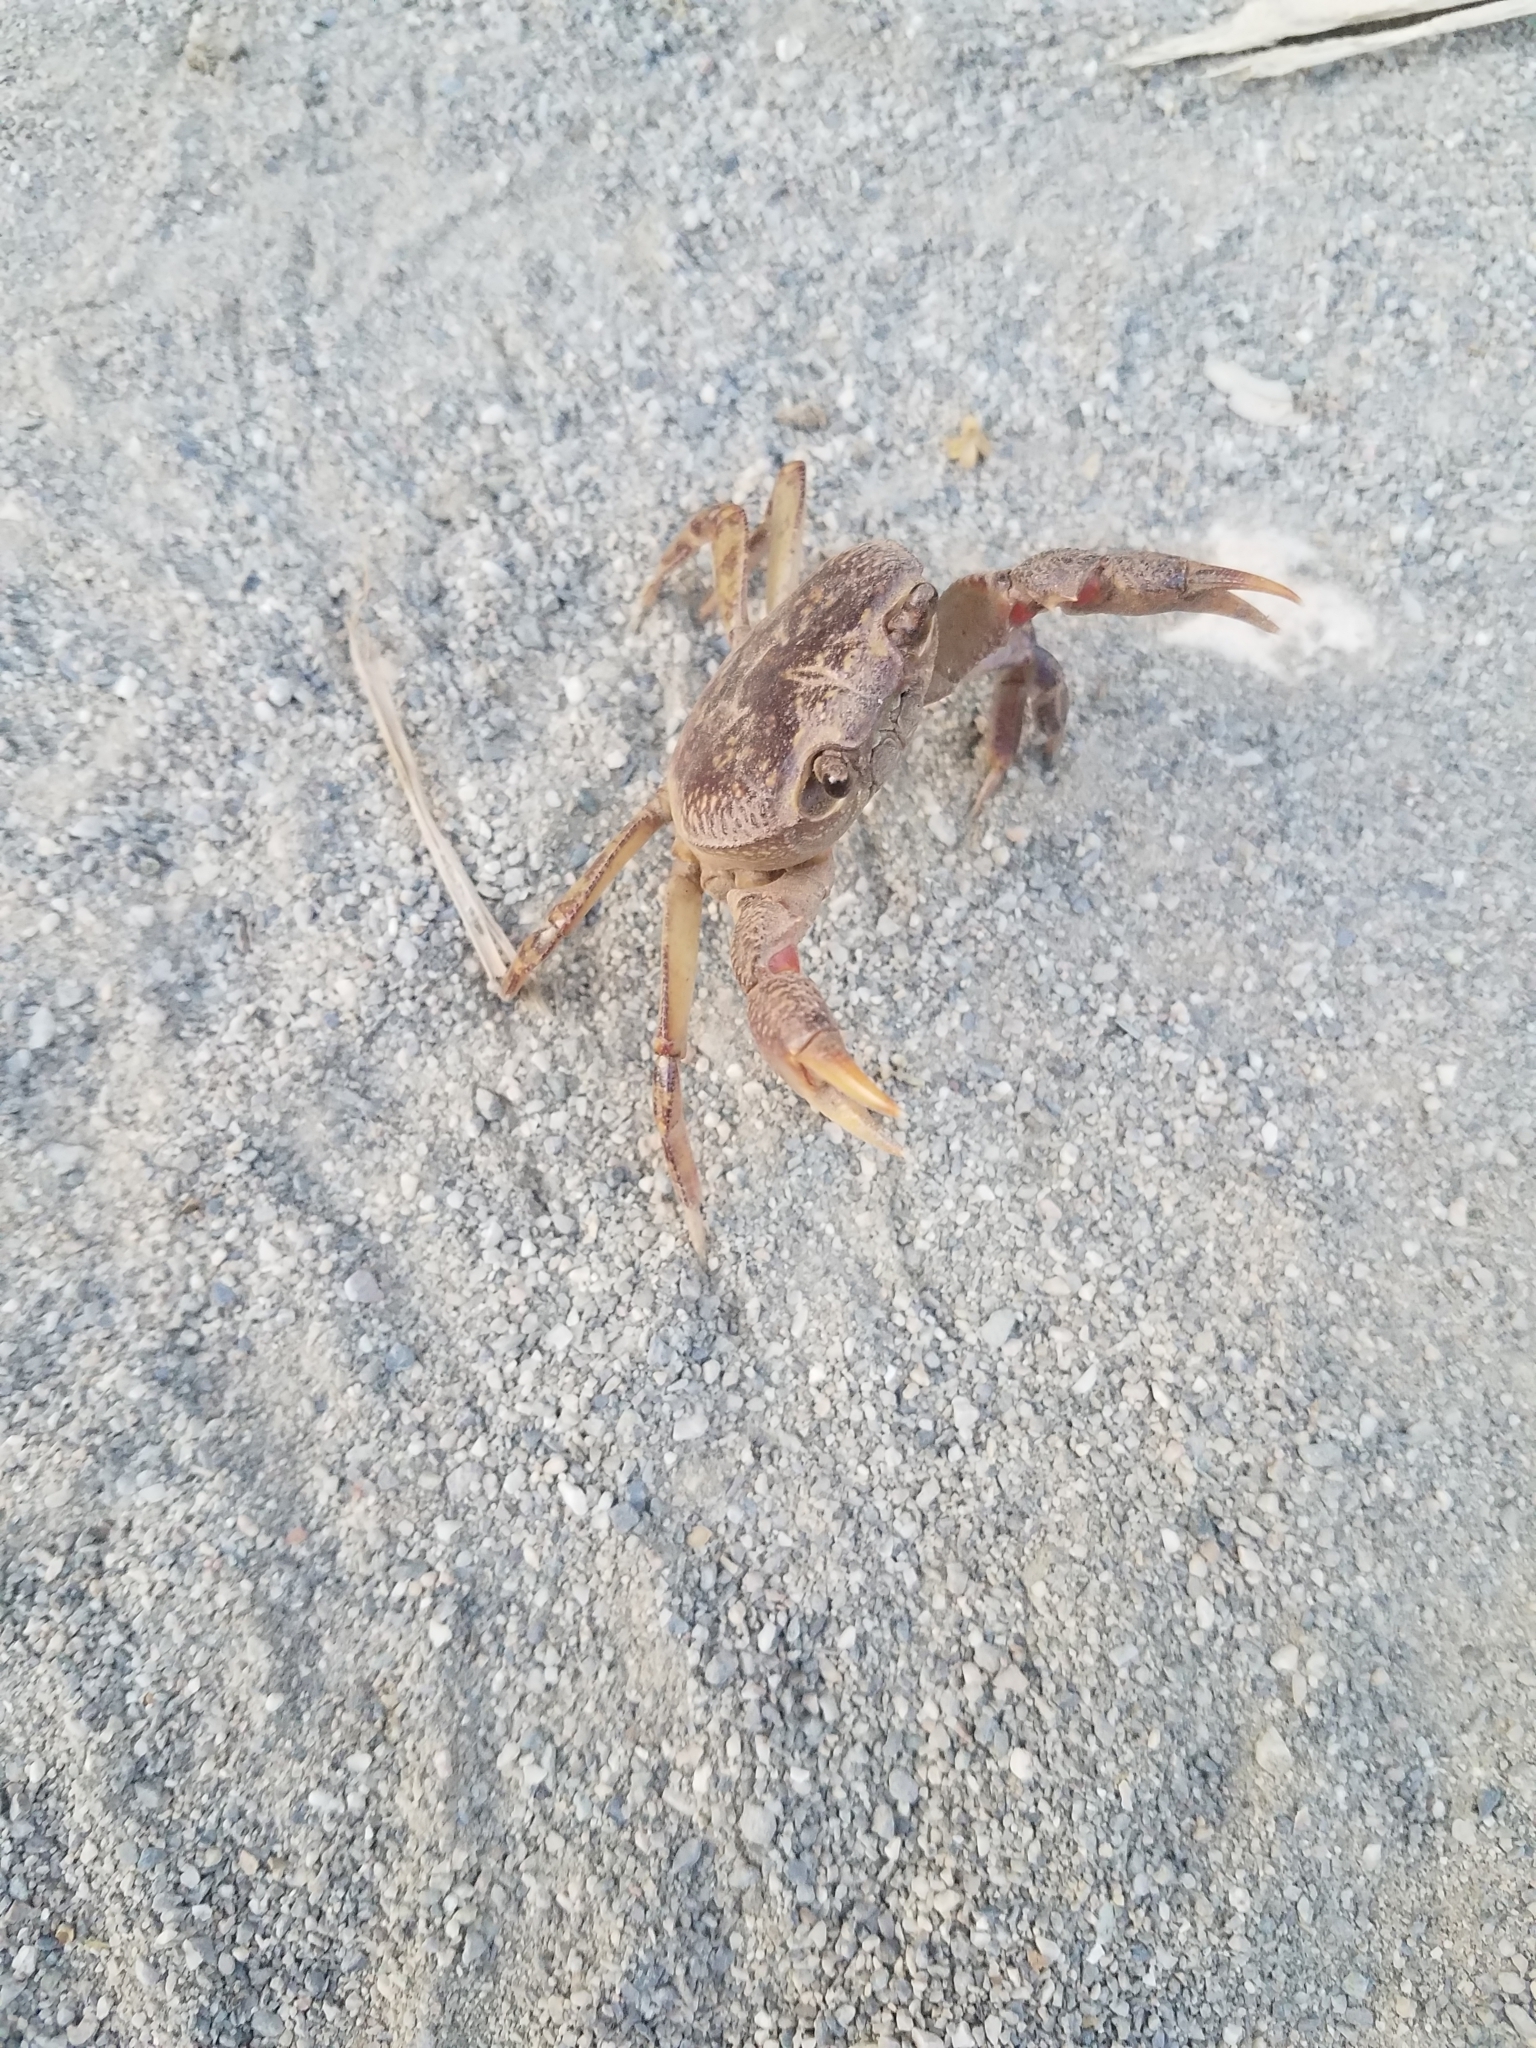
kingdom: Animalia
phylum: Arthropoda
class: Malacostraca
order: Decapoda
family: Potamidae
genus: Potamon
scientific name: Potamon hippocratis
